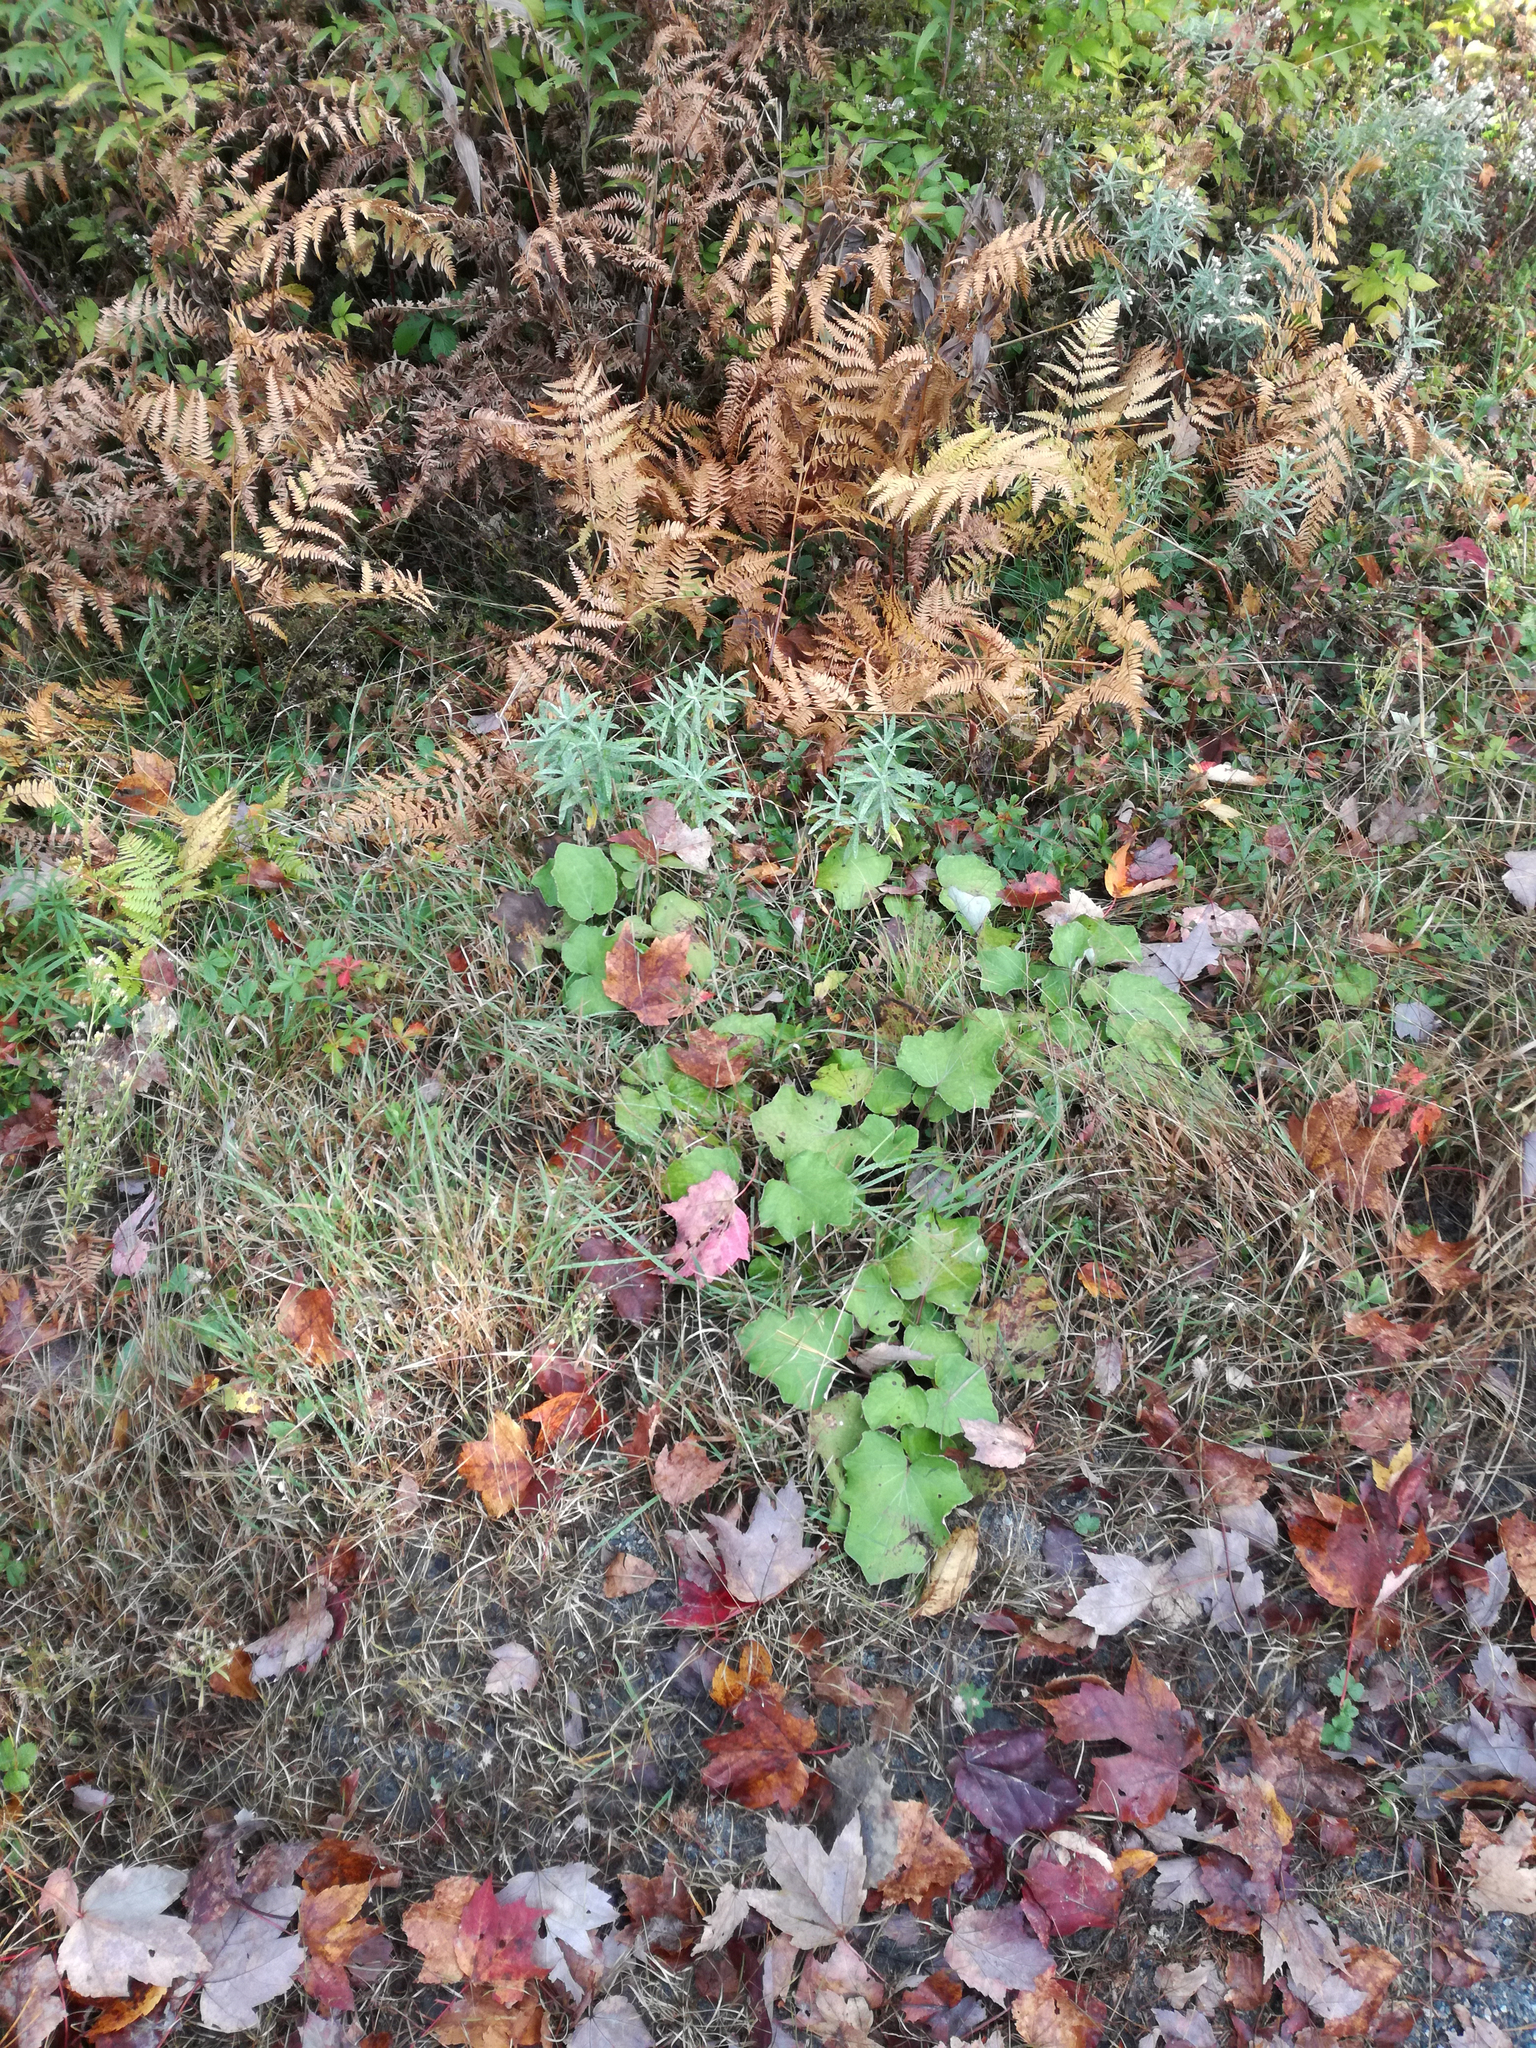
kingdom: Plantae
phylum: Tracheophyta
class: Magnoliopsida
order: Asterales
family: Asteraceae
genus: Tussilago
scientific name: Tussilago farfara
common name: Coltsfoot
